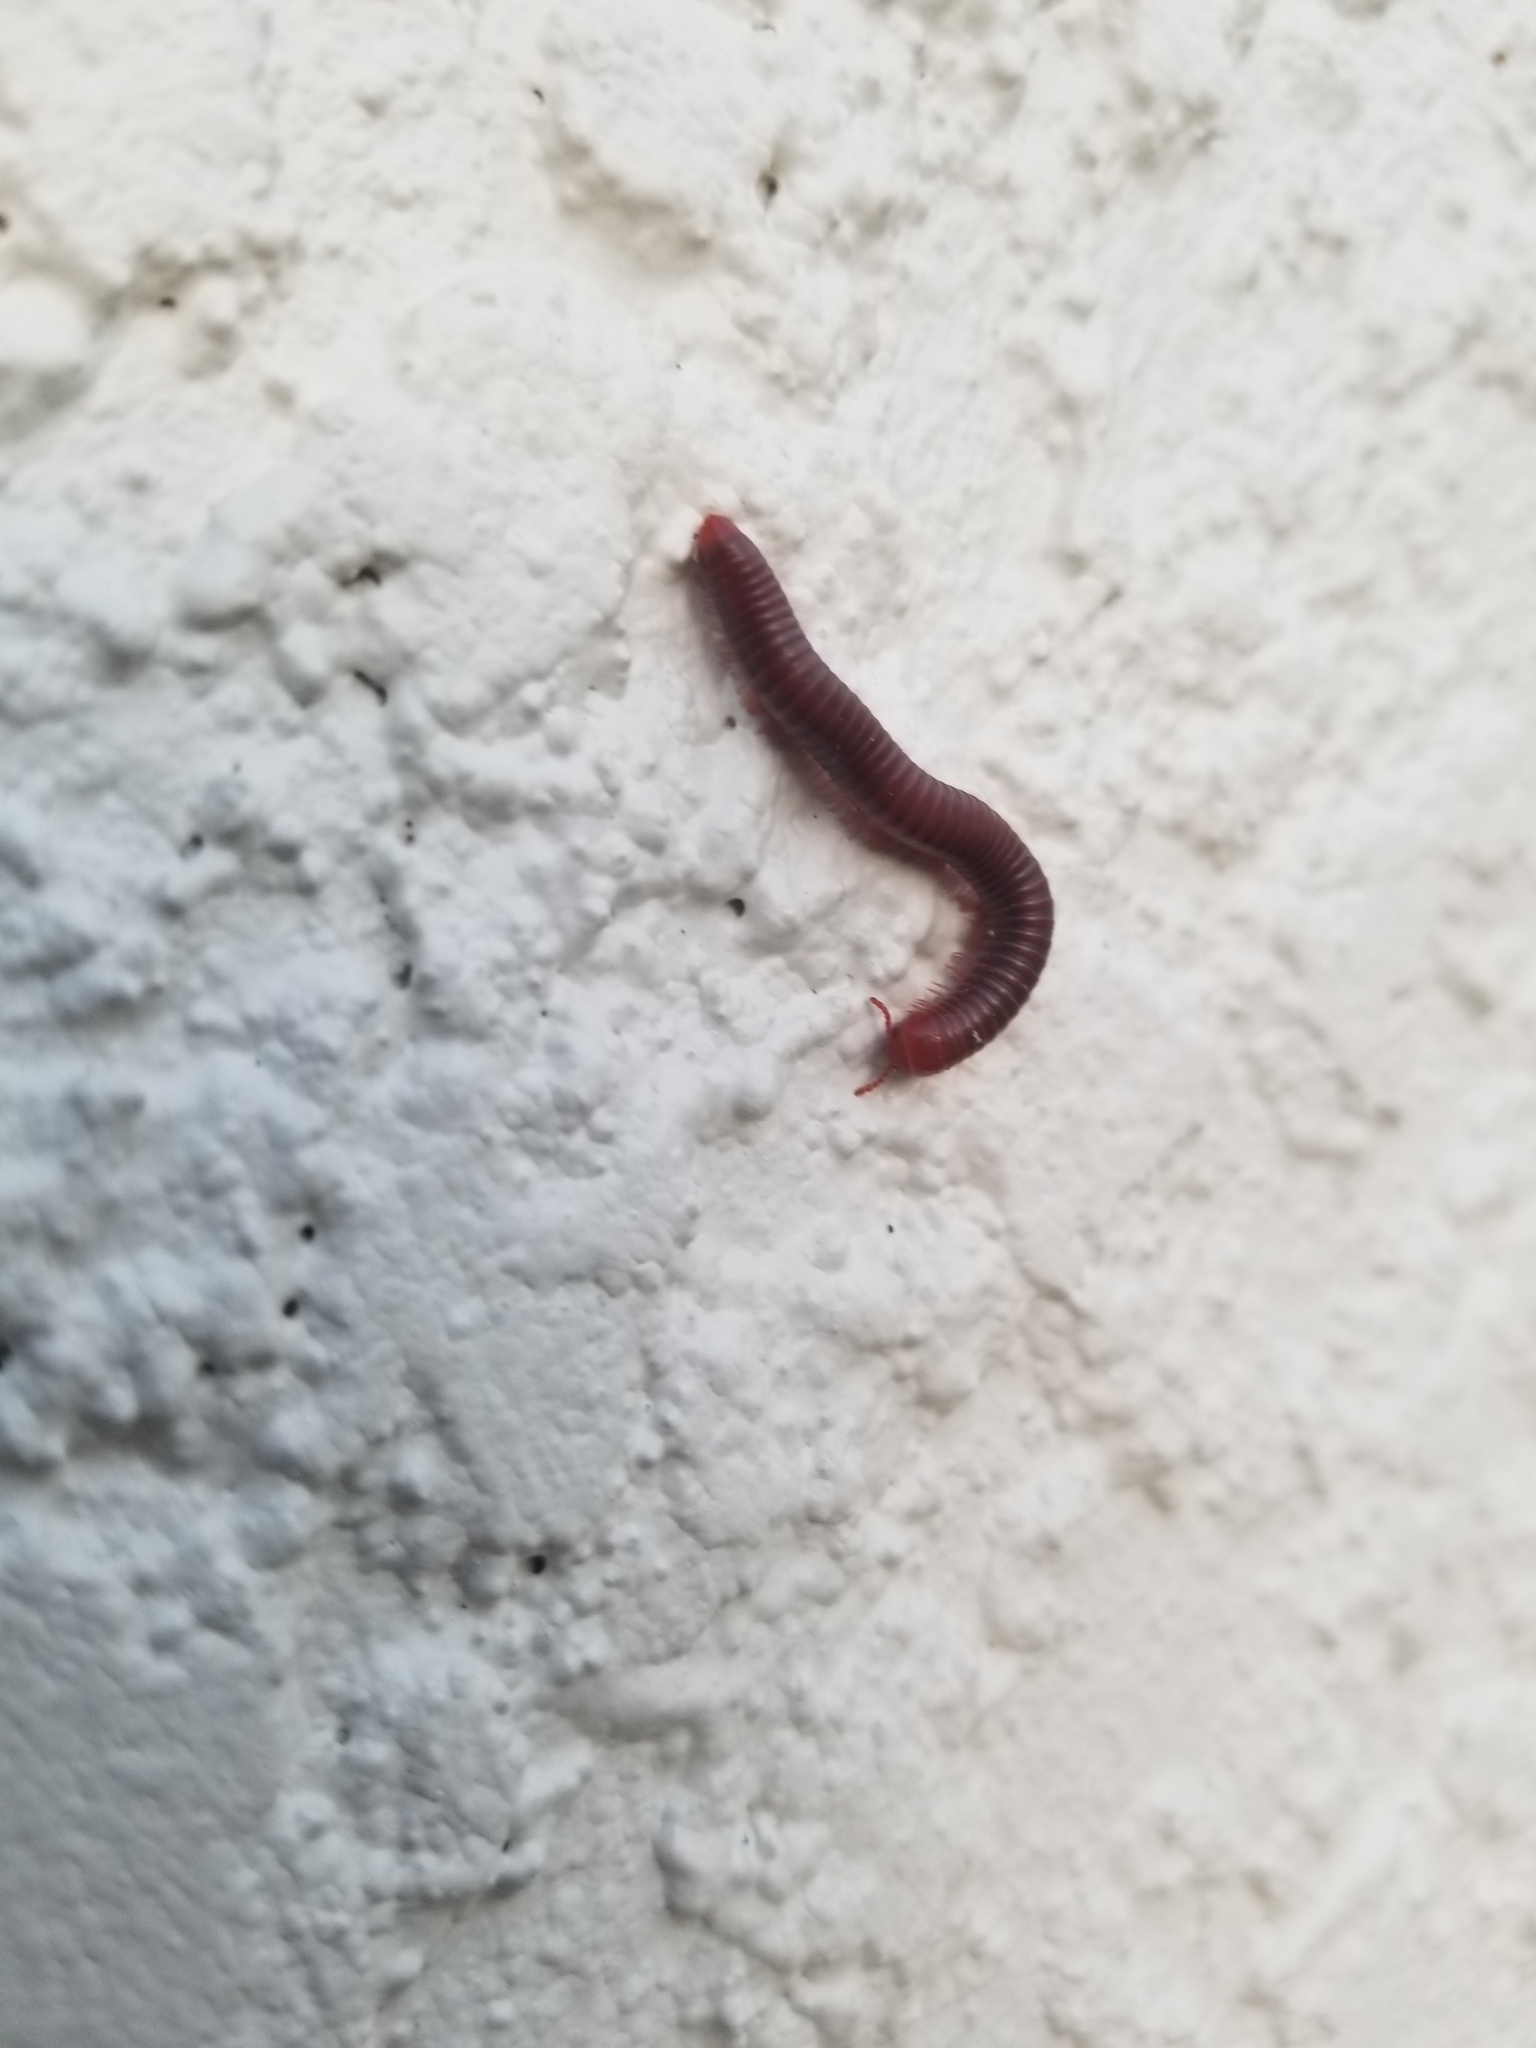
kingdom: Animalia
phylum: Arthropoda
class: Diplopoda
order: Spirobolida
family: Pachybolidae
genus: Trigoniulus
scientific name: Trigoniulus corallinus
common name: Millipede
